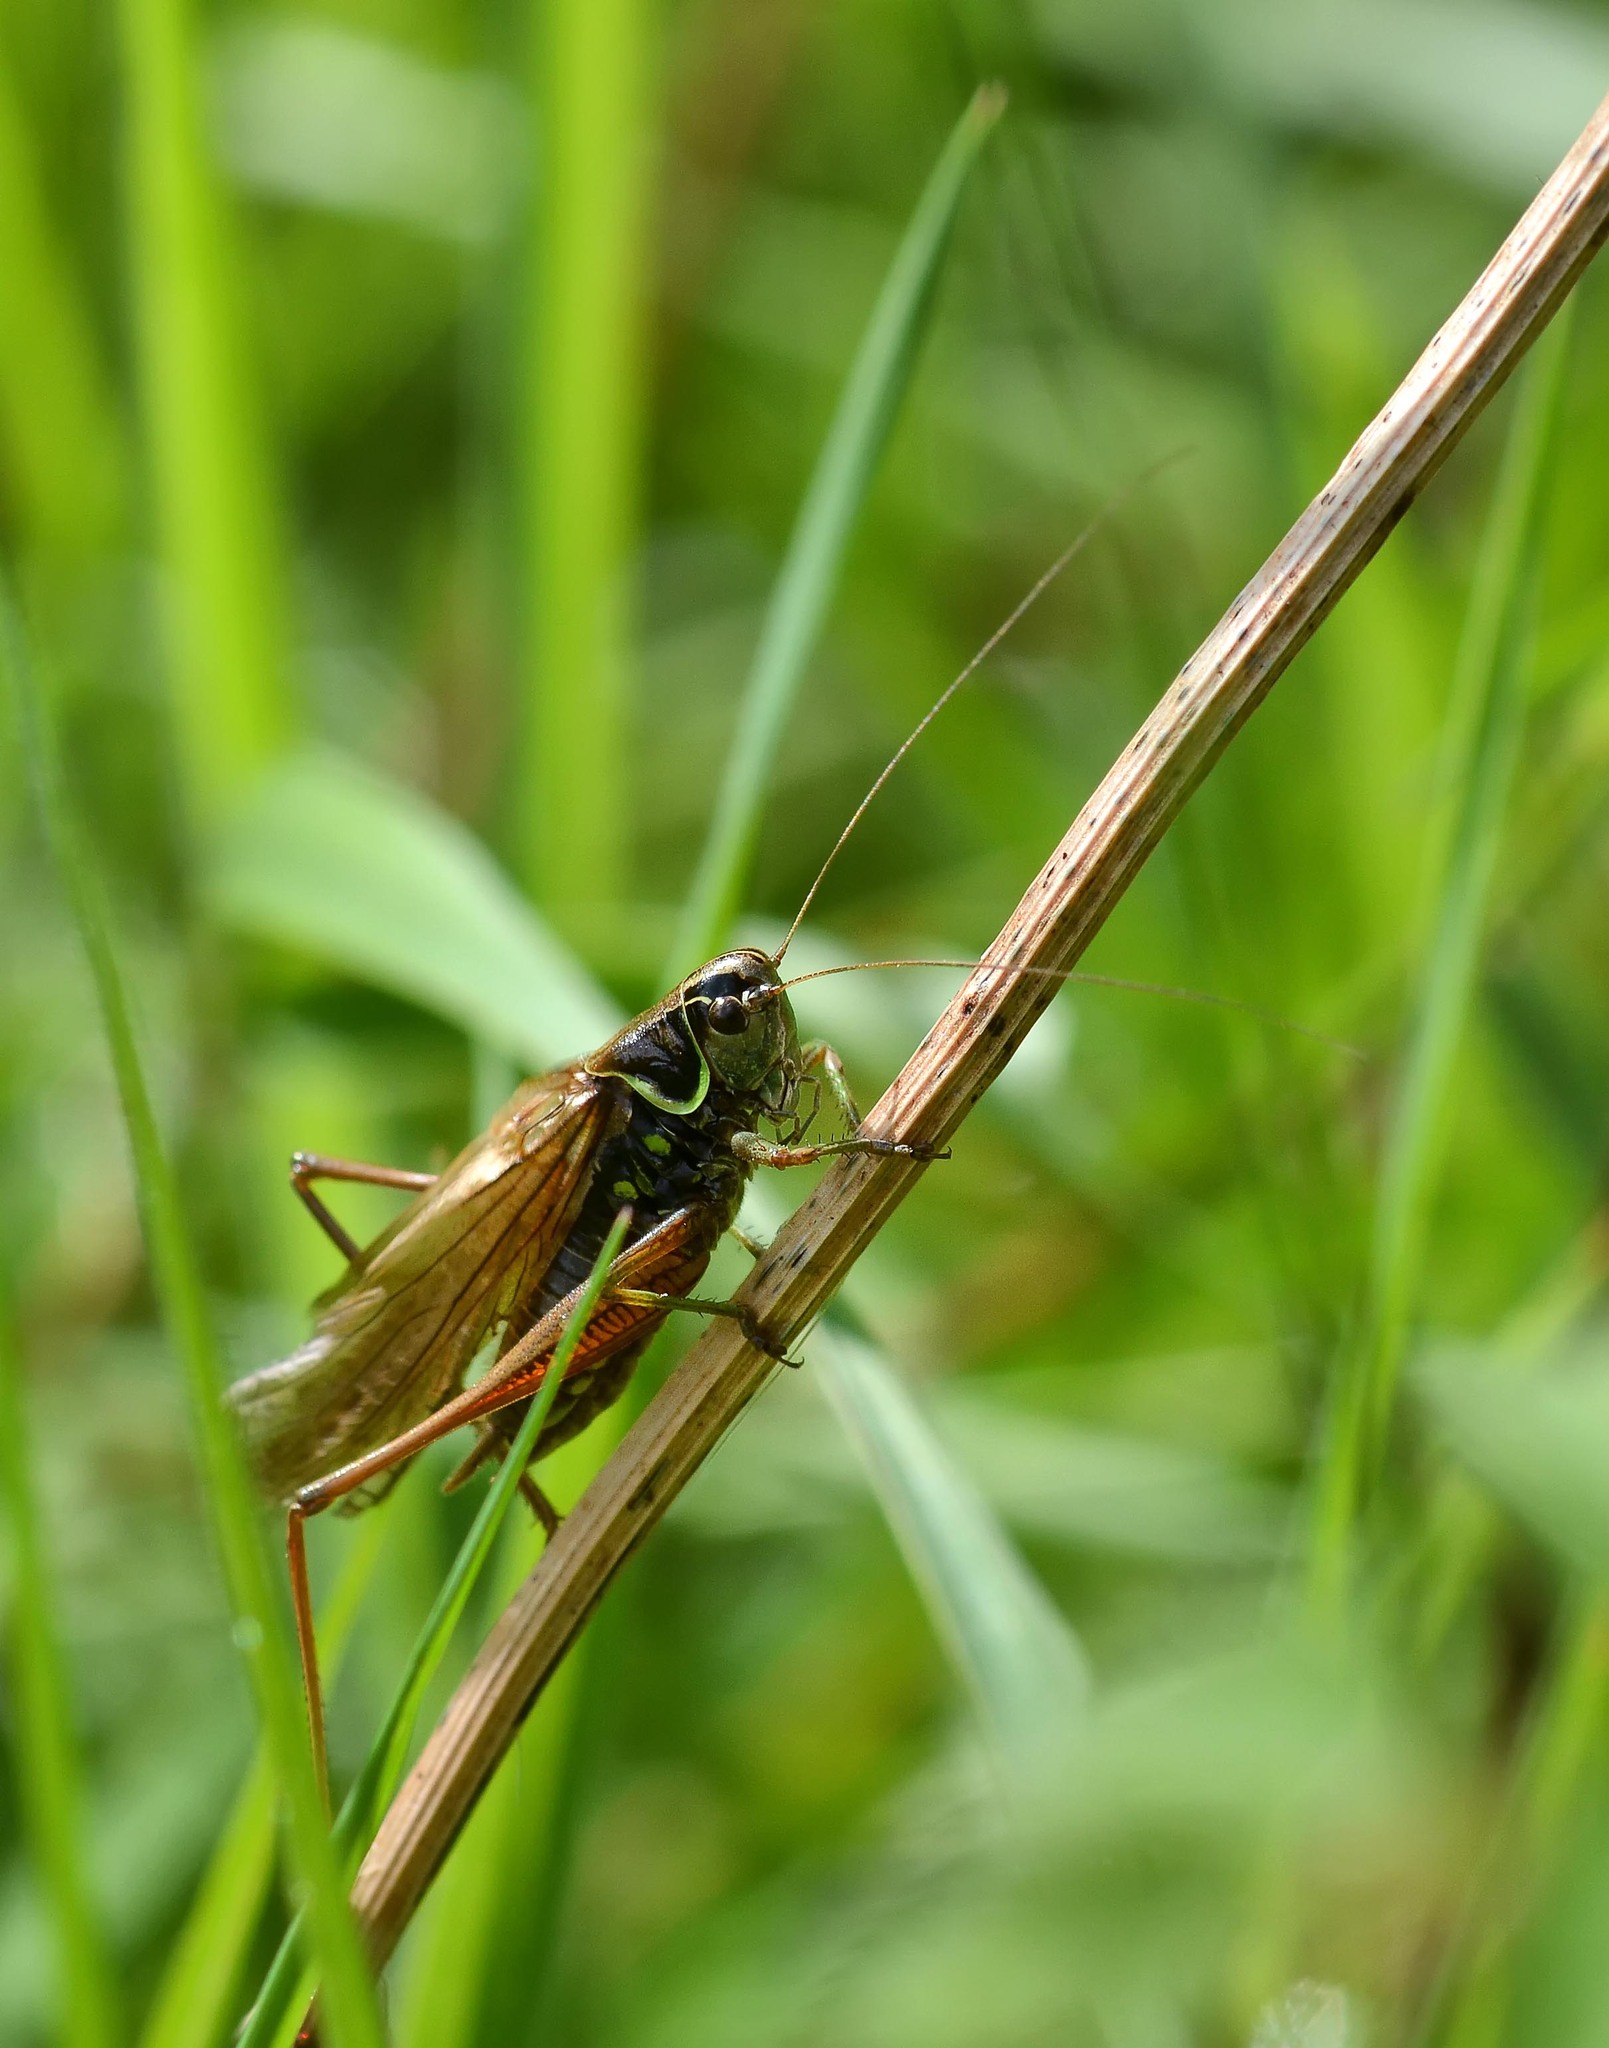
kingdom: Animalia
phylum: Arthropoda
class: Insecta
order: Orthoptera
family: Tettigoniidae
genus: Roeseliana
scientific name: Roeseliana roeselii
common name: Roesel's bush cricket
